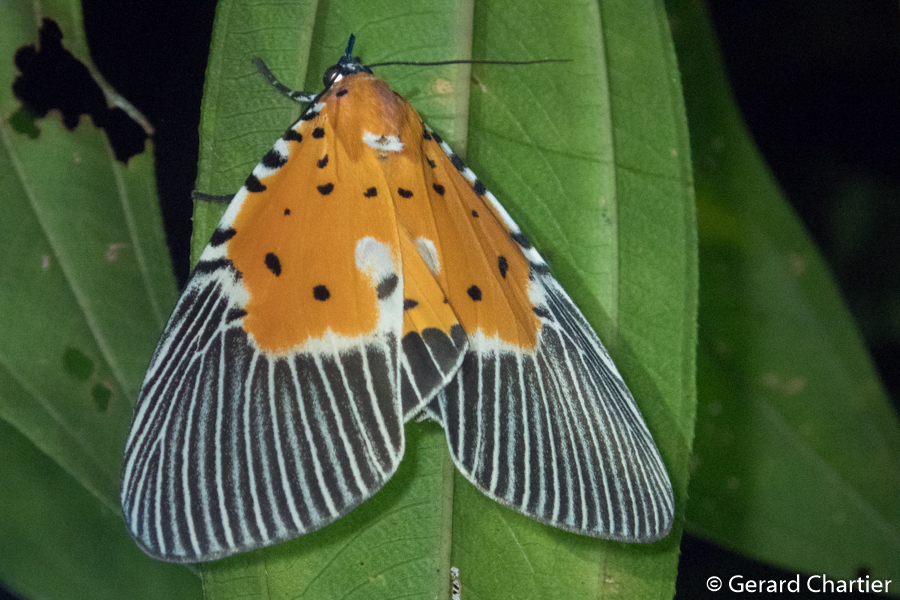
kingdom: Animalia
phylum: Arthropoda
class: Insecta
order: Lepidoptera
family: Erebidae
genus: Peridrome
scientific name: Peridrome orbicularis
